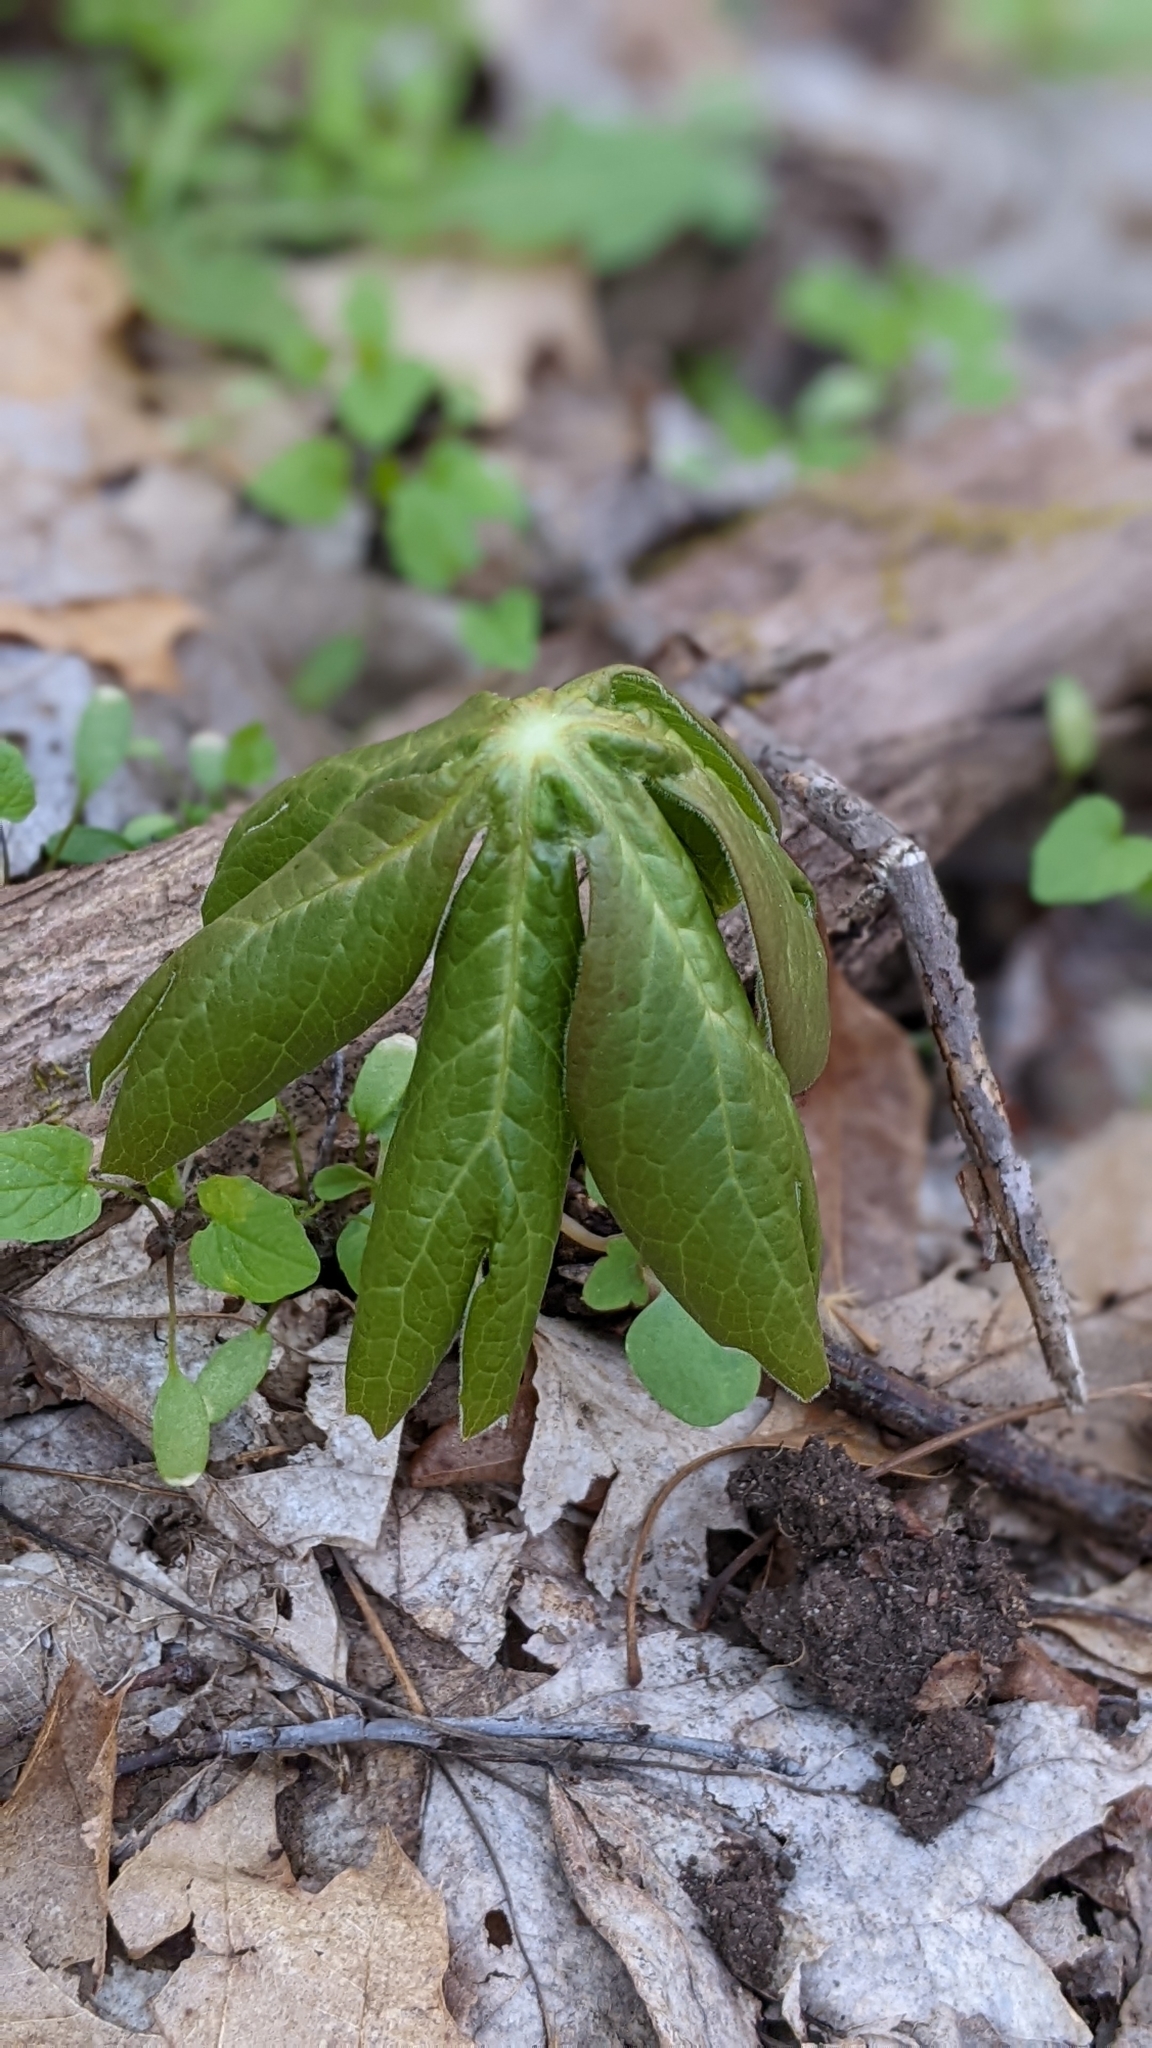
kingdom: Plantae
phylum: Tracheophyta
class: Magnoliopsida
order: Ranunculales
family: Berberidaceae
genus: Podophyllum
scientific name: Podophyllum peltatum
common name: Wild mandrake
